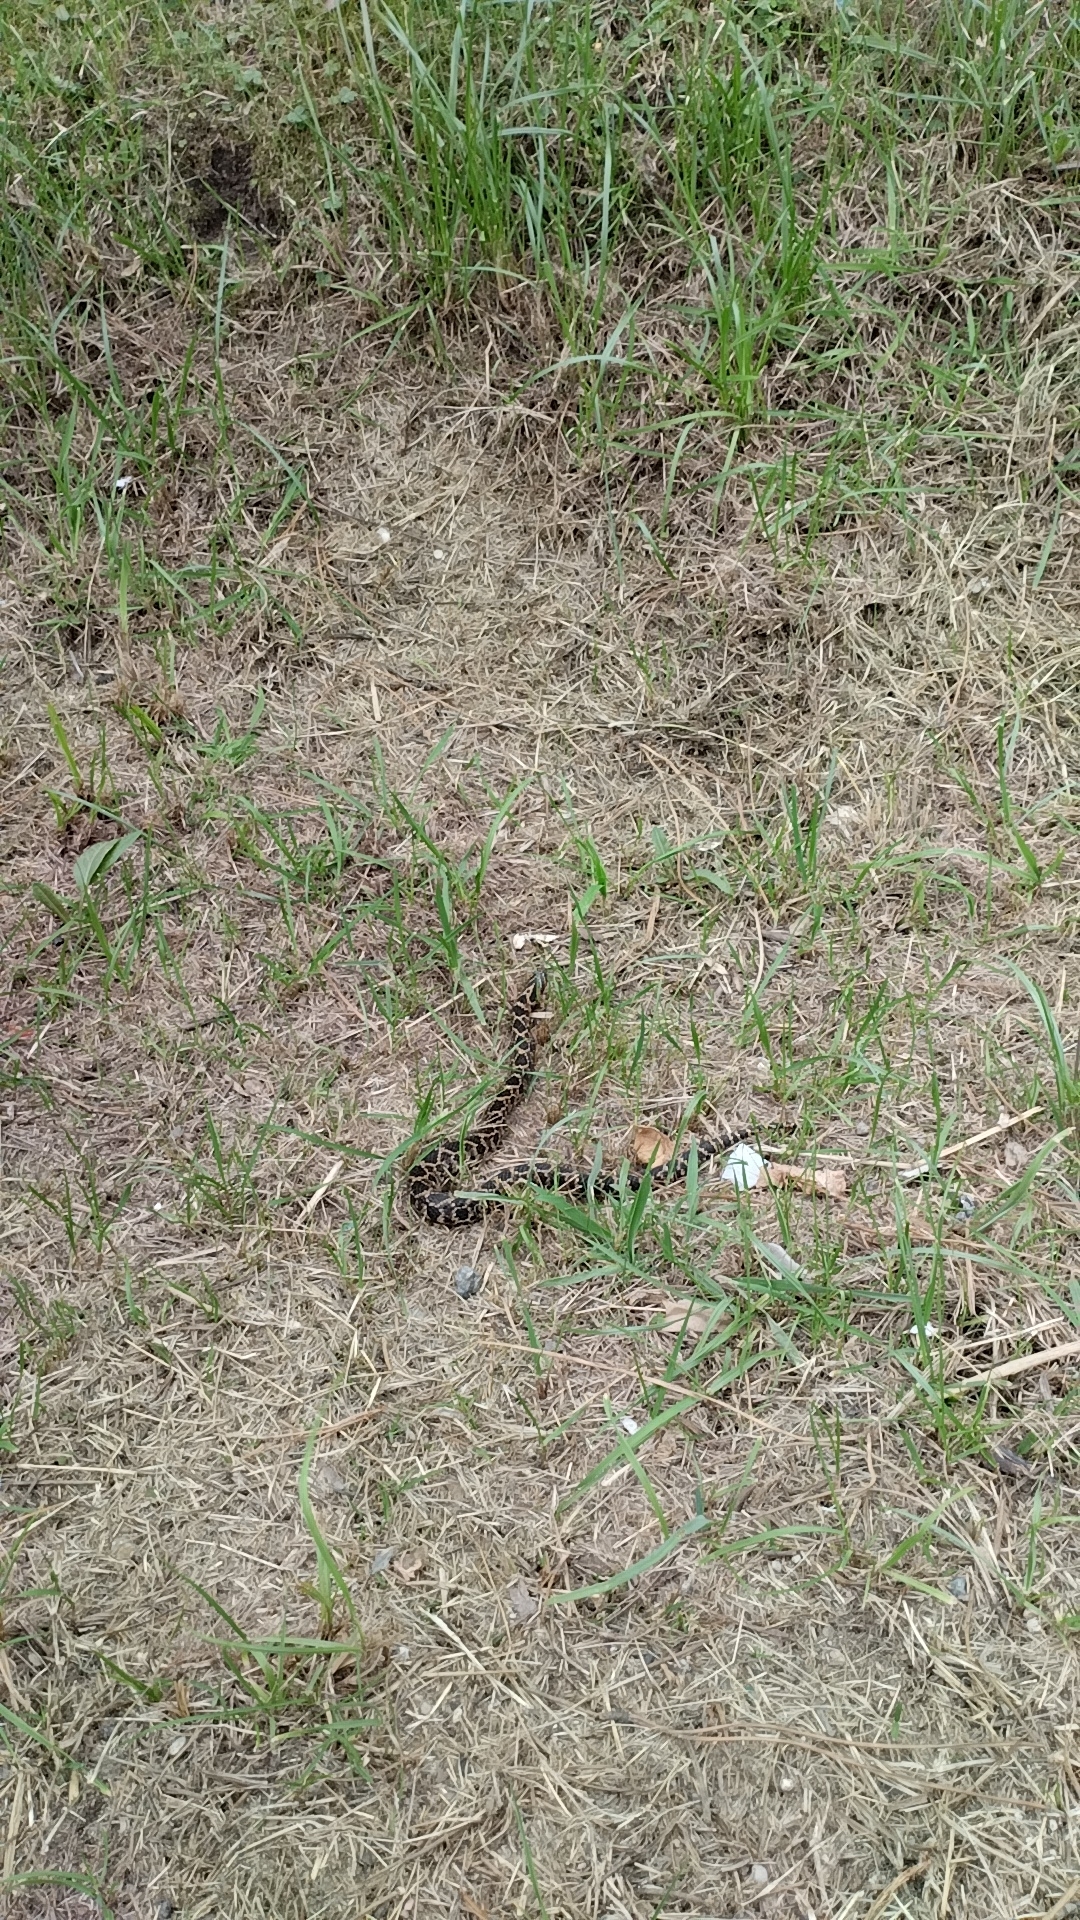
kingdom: Animalia
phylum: Chordata
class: Squamata
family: Colubridae
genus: Xenodon
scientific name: Xenodon dorbignyi
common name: South american hognose snake
